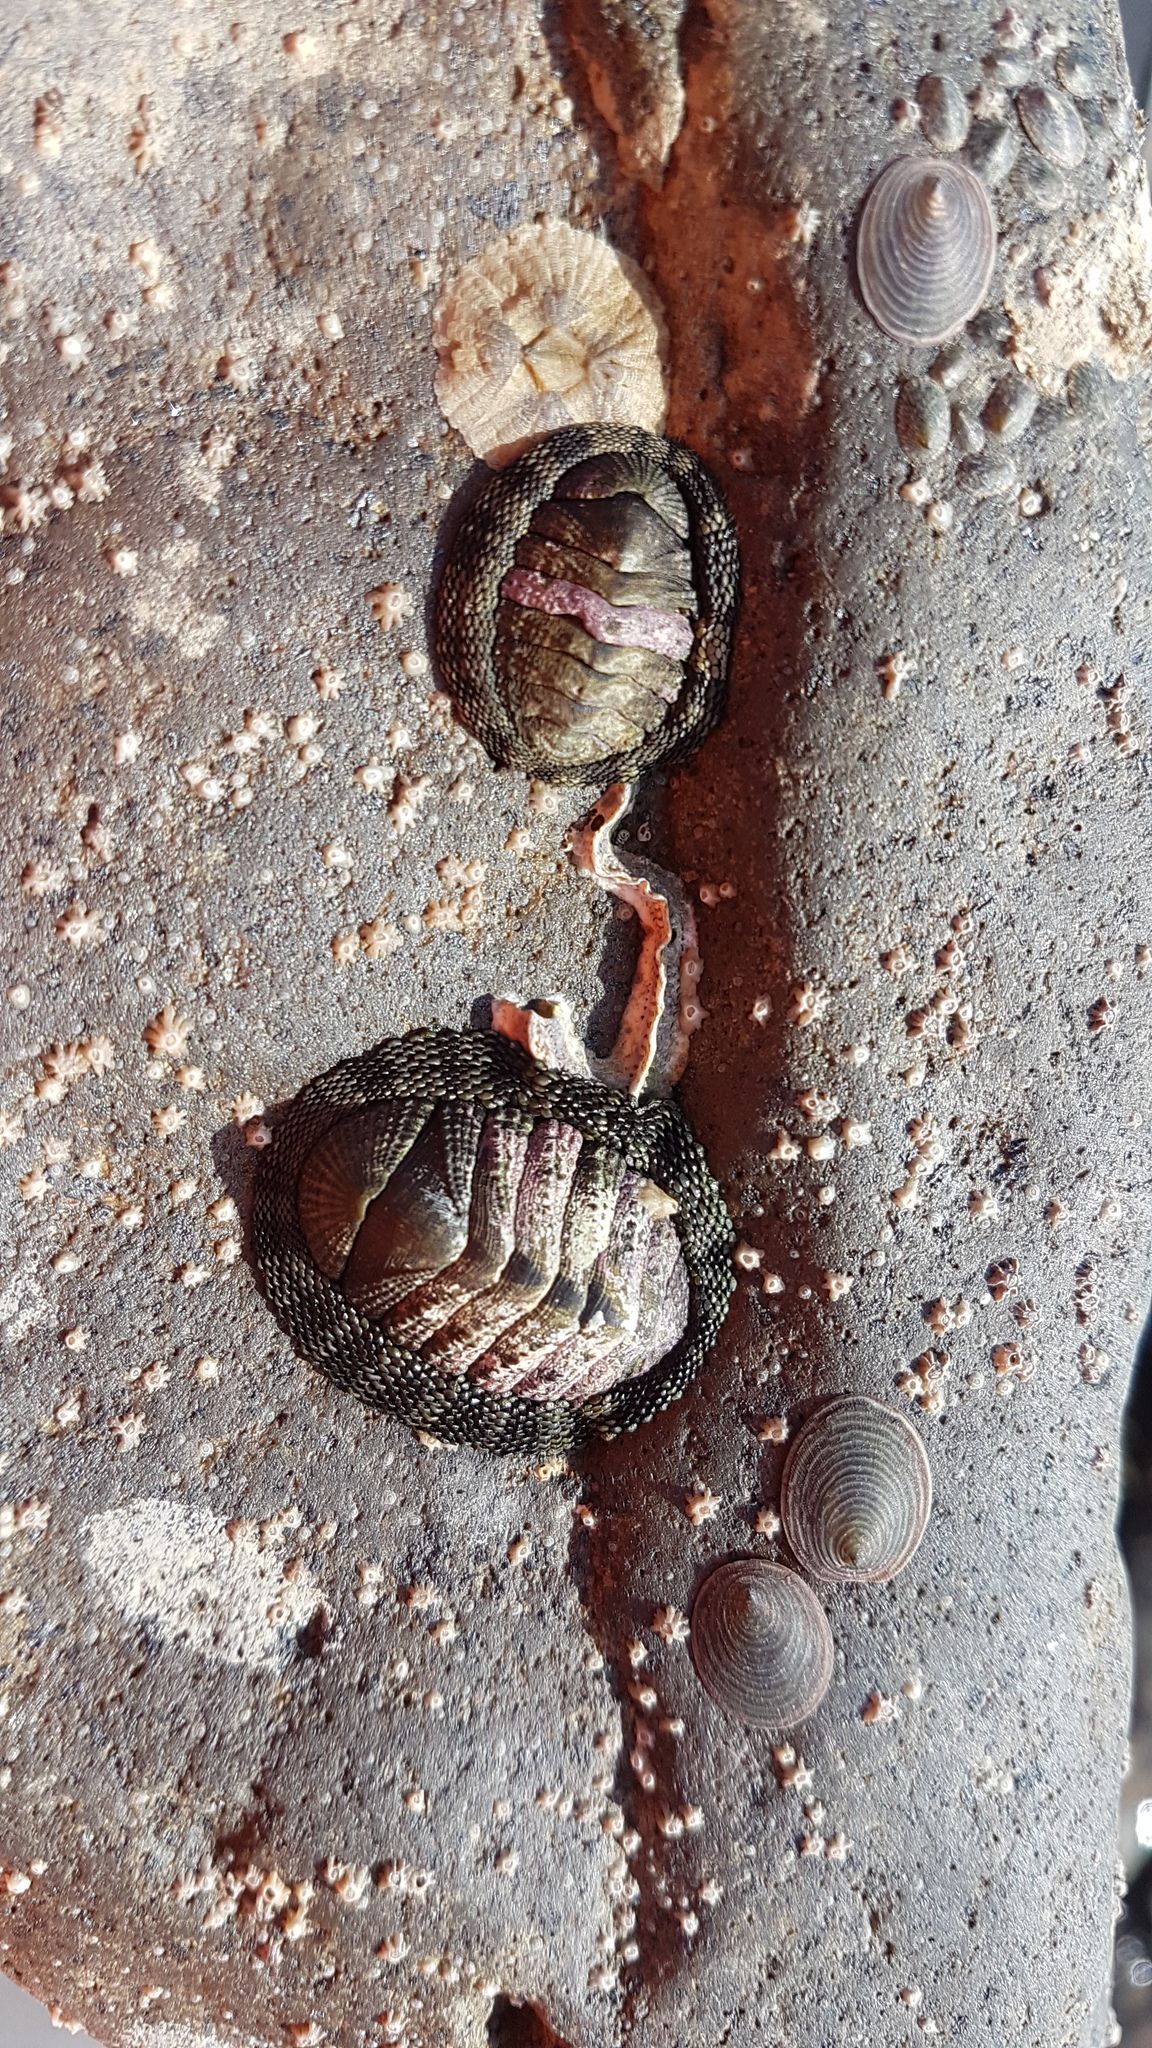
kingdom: Animalia
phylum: Mollusca
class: Gastropoda
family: Lottiidae
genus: Atalacmea
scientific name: Atalacmea fragilis
